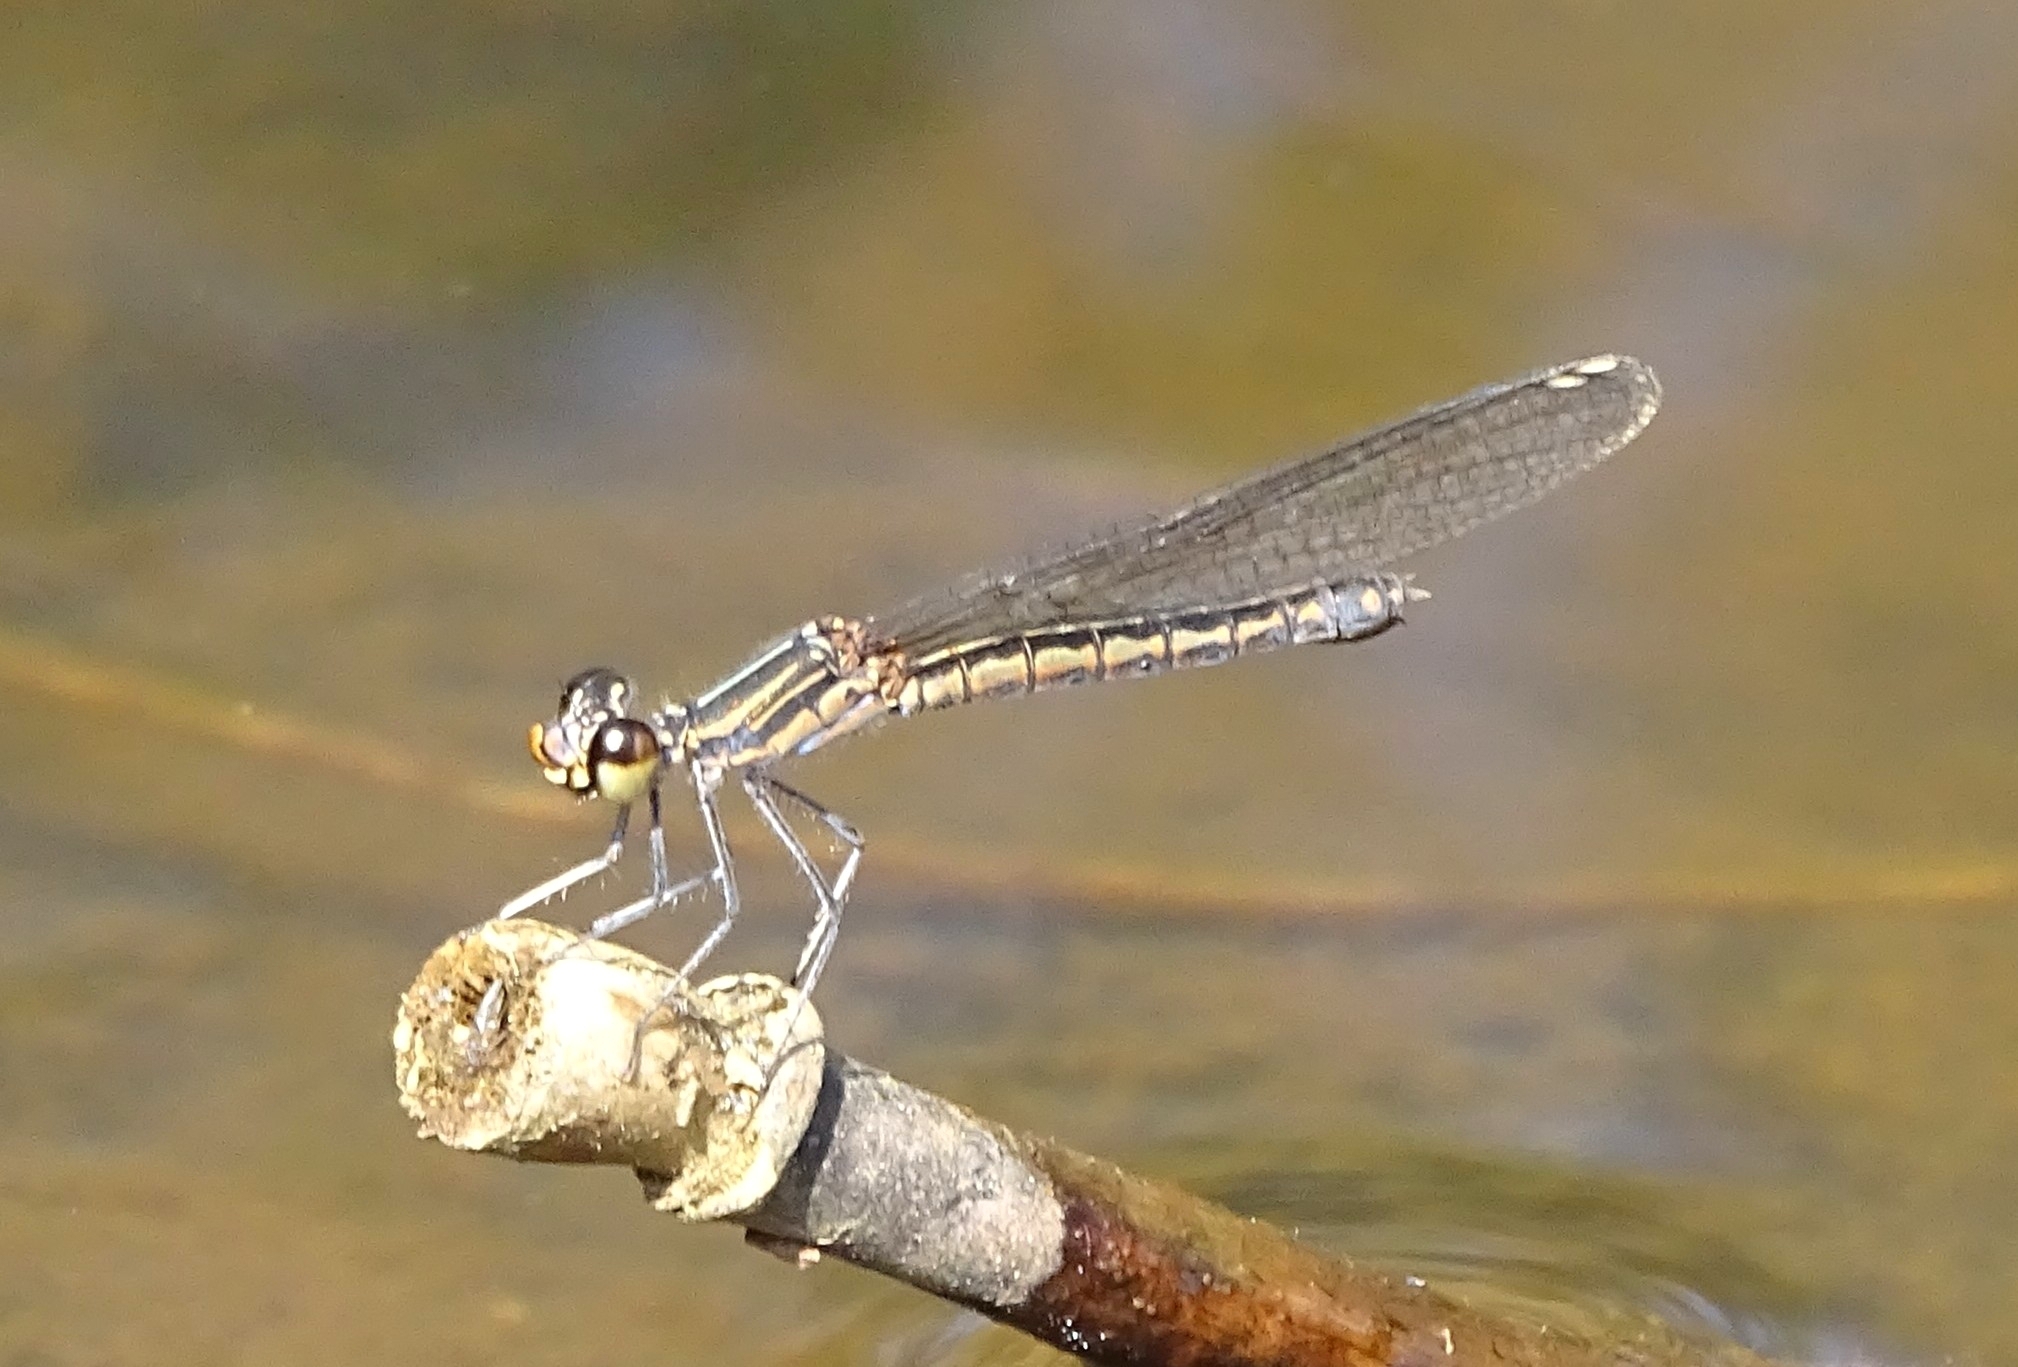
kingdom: Animalia
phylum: Arthropoda
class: Insecta
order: Odonata
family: Chlorocyphidae
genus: Libellago
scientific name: Libellago indica
